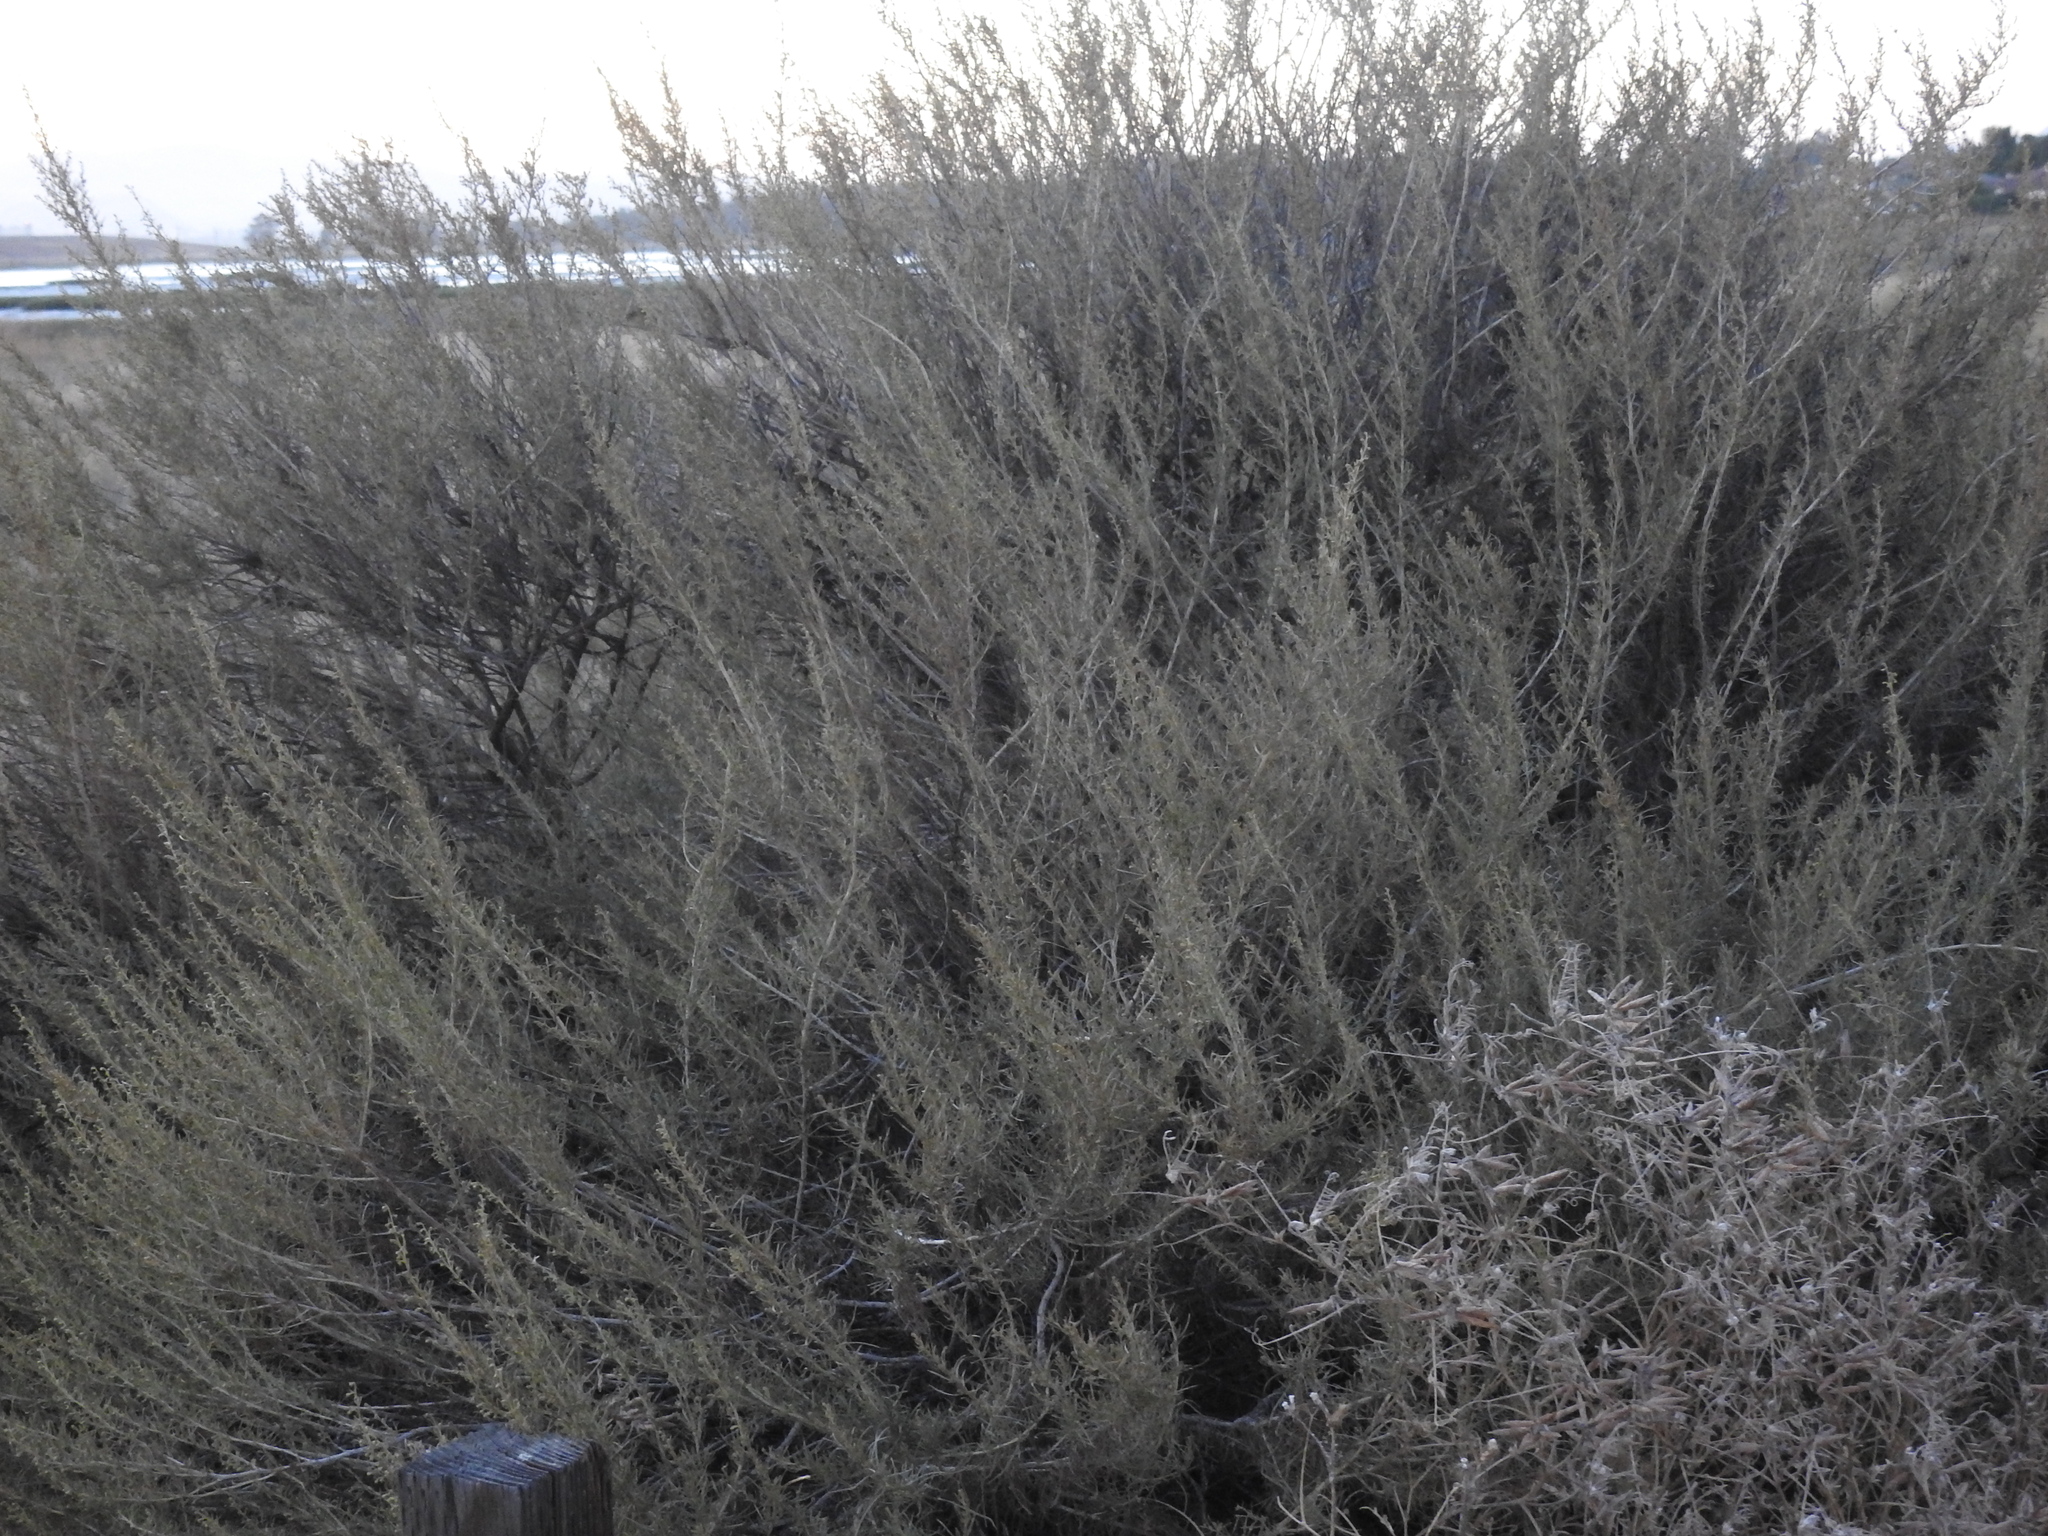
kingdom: Plantae
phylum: Tracheophyta
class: Magnoliopsida
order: Asterales
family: Asteraceae
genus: Artemisia
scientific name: Artemisia californica
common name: California sagebrush
